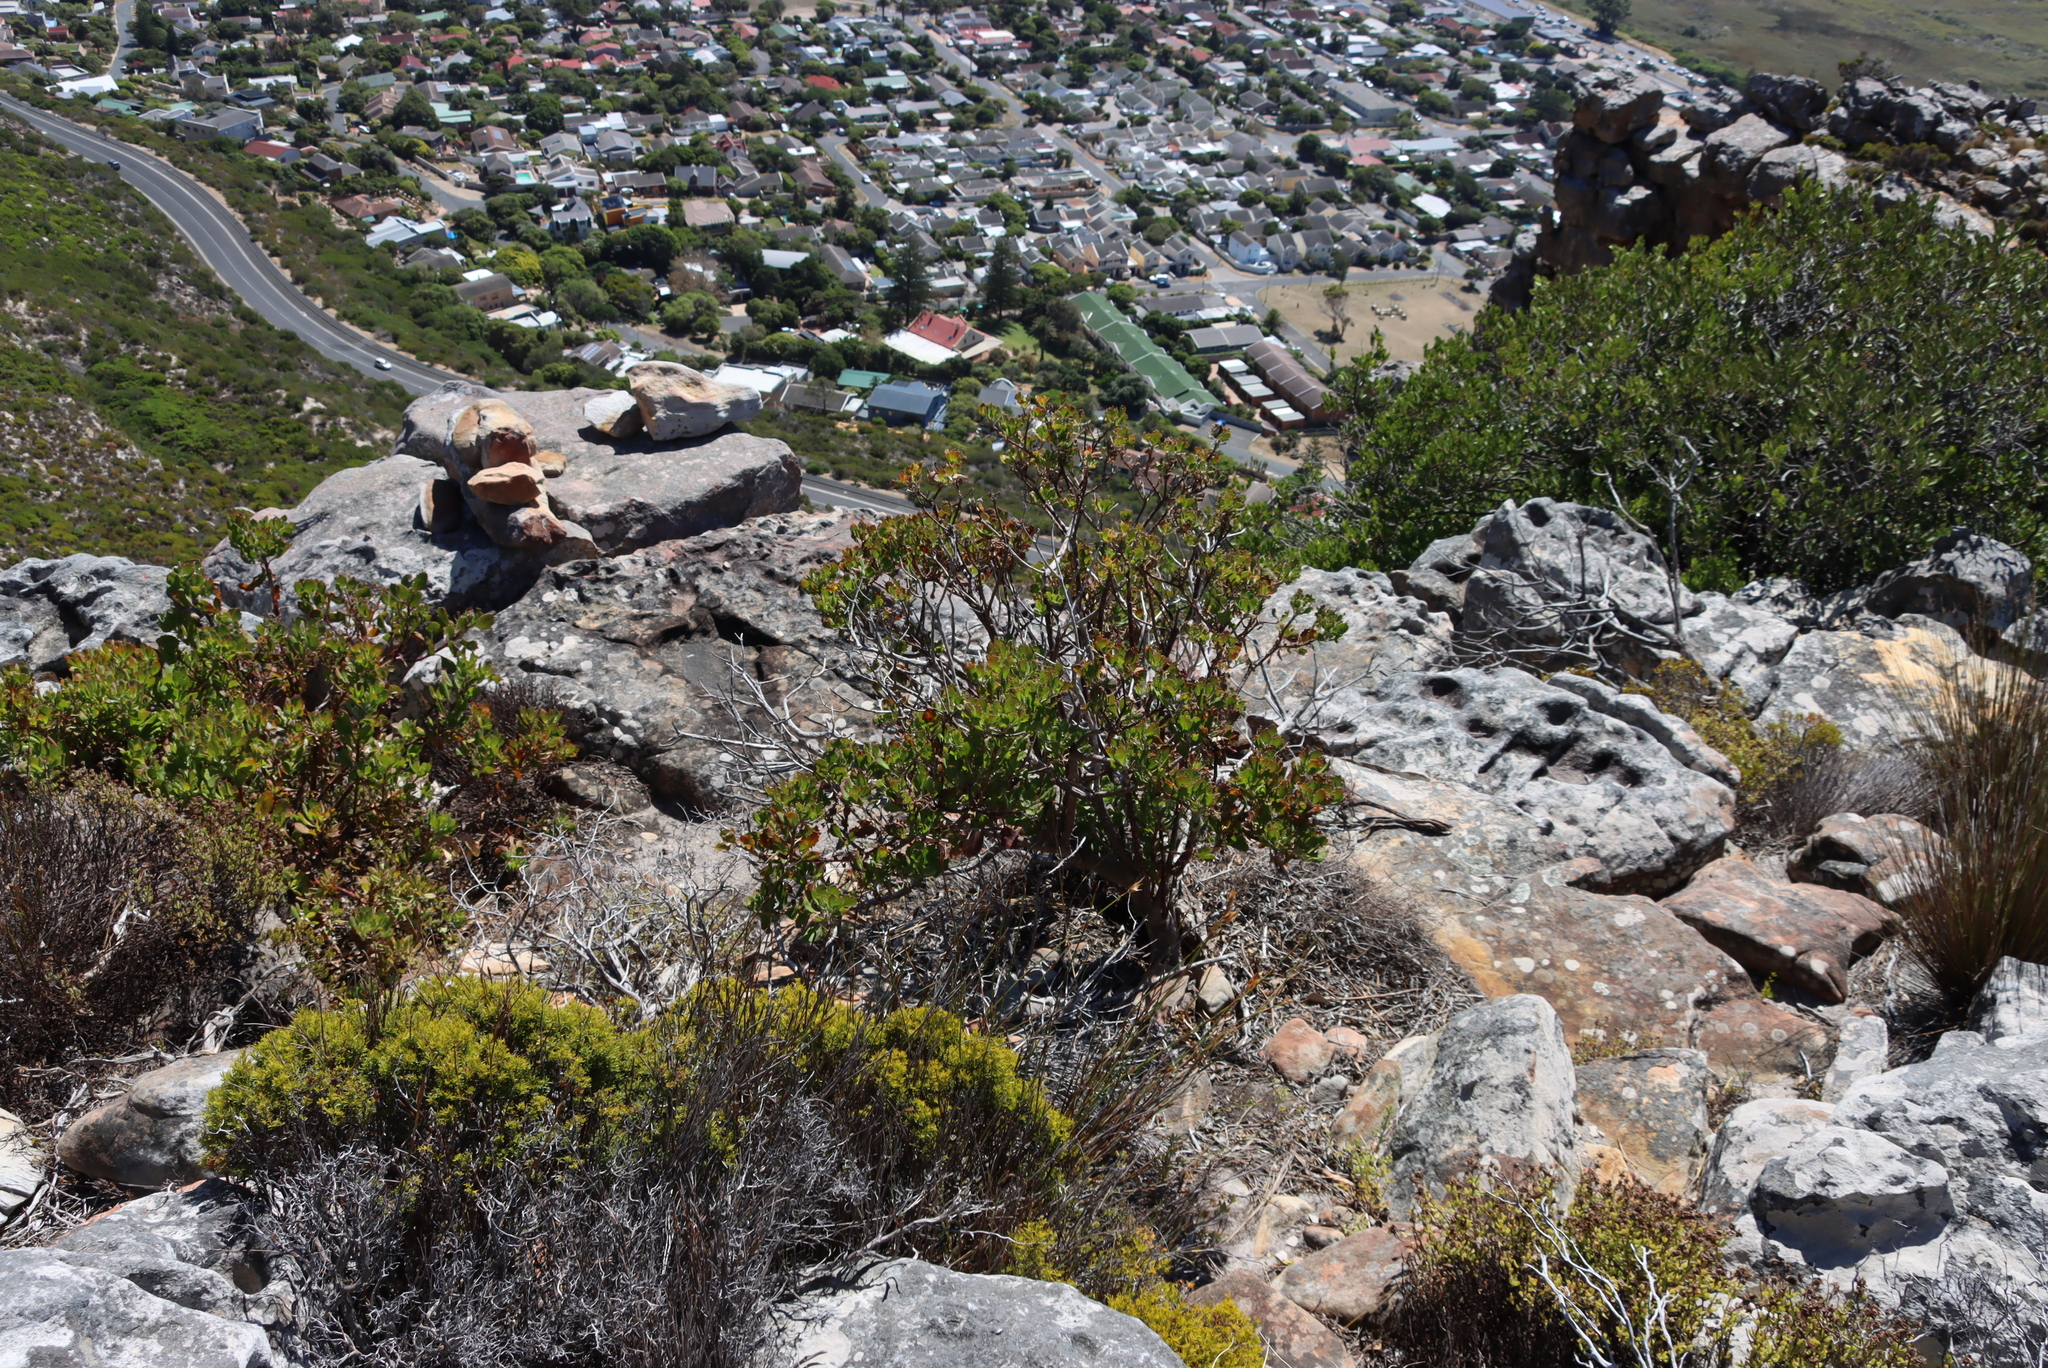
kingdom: Plantae
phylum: Tracheophyta
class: Magnoliopsida
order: Asterales
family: Asteraceae
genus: Osteospermum
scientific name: Osteospermum moniliferum
